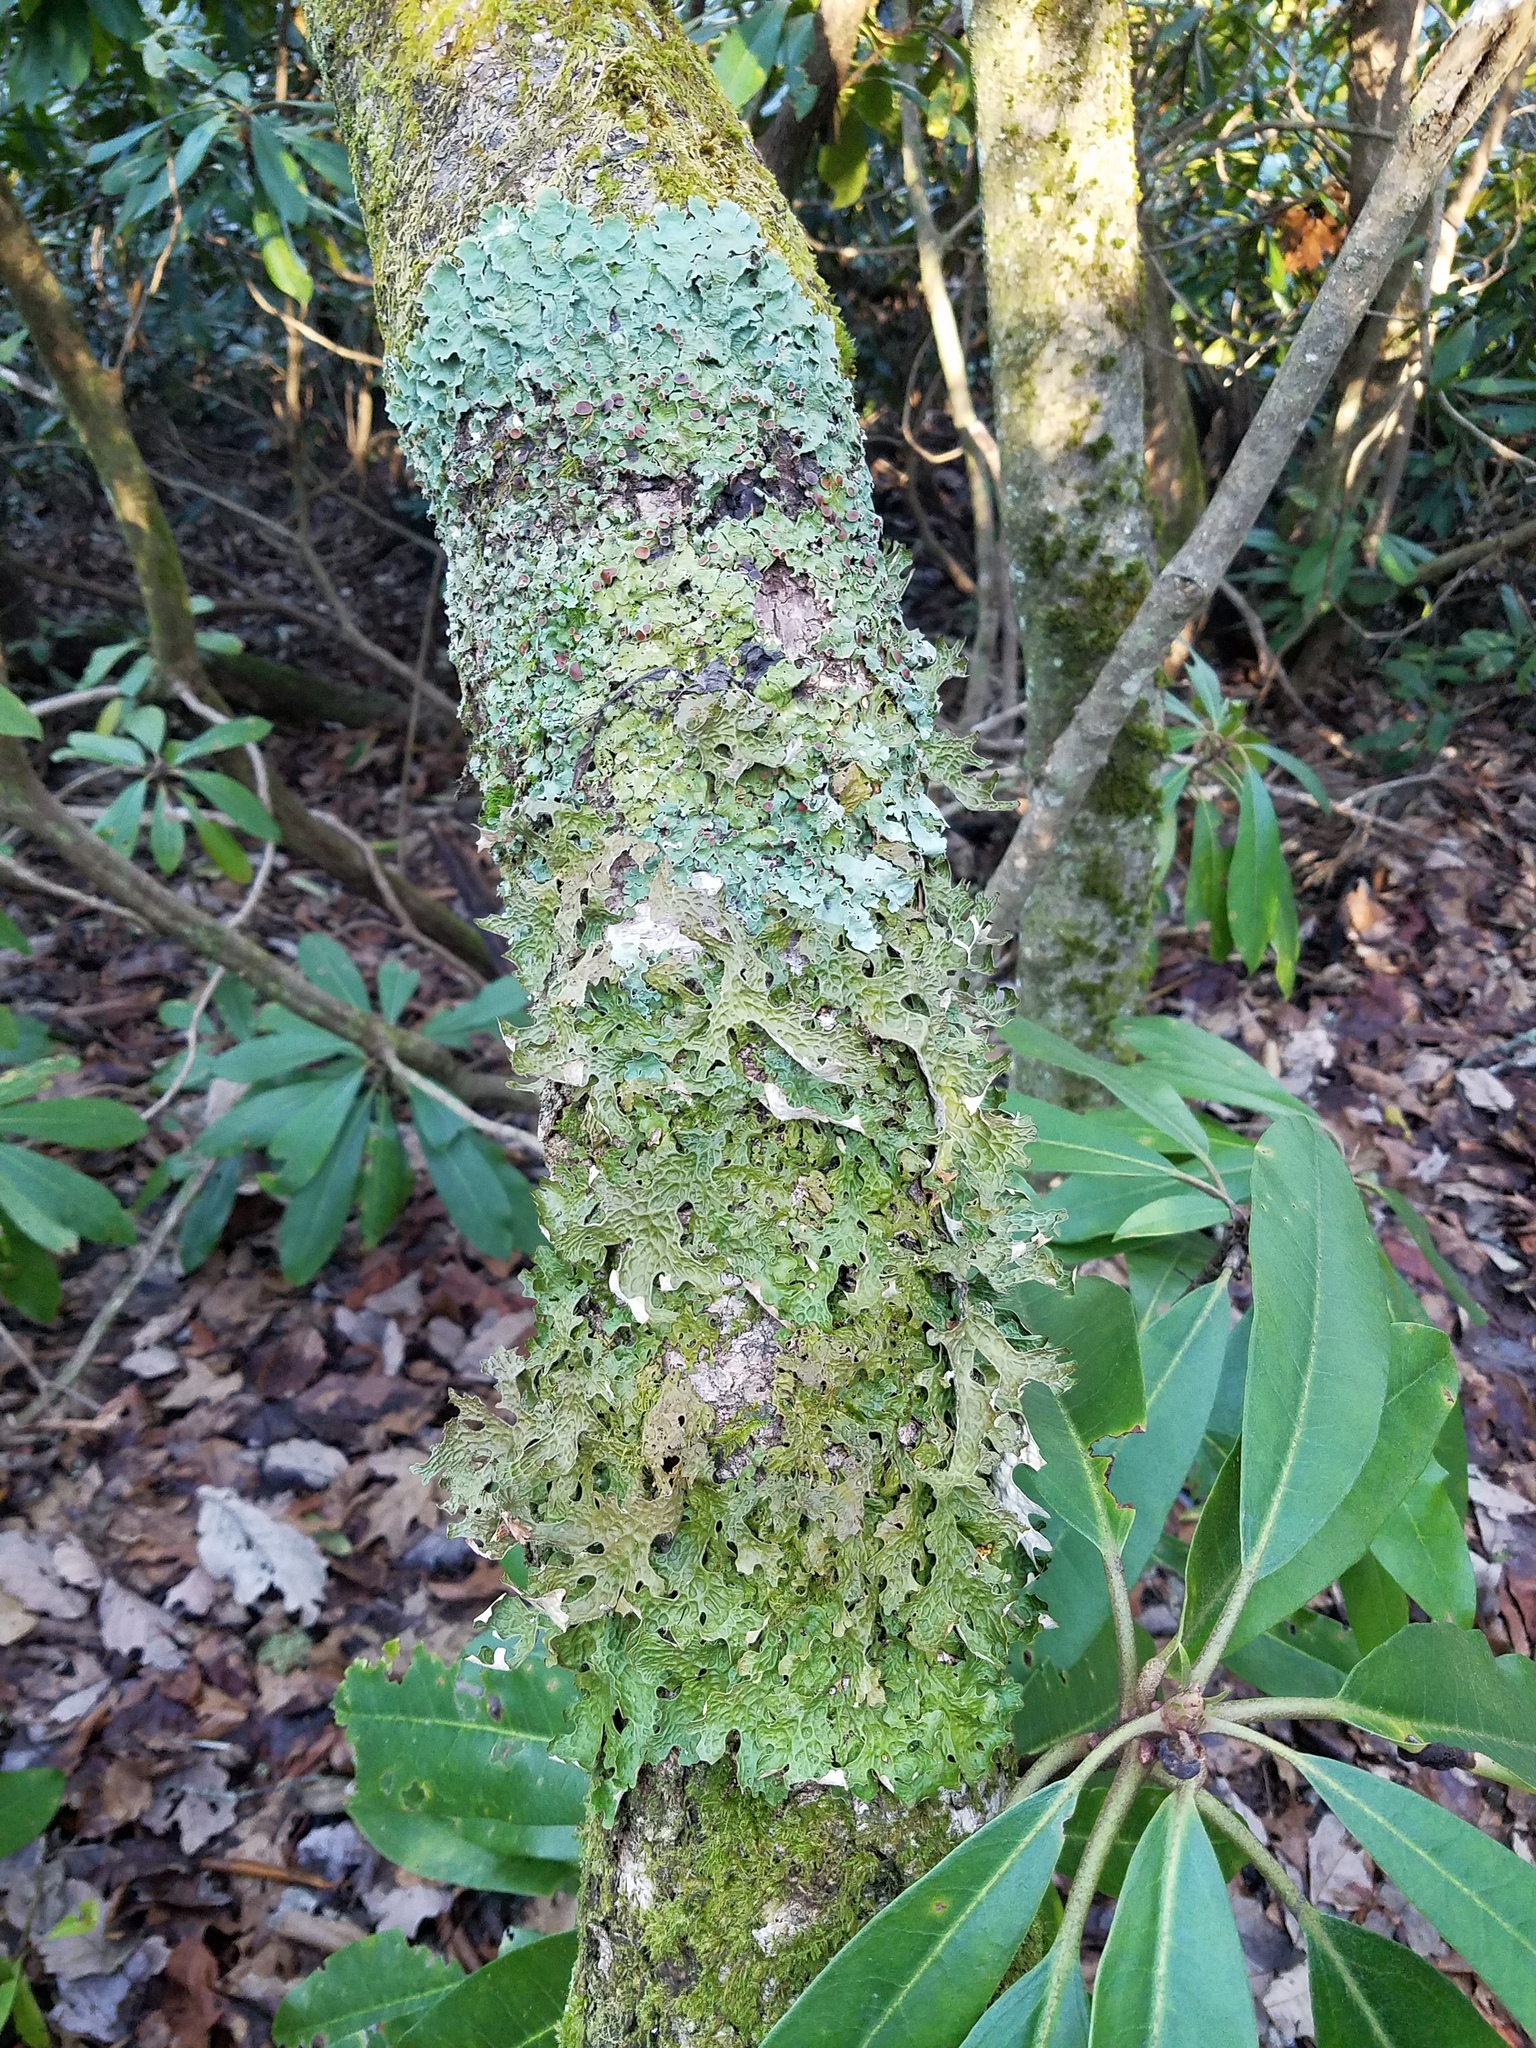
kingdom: Fungi
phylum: Ascomycota
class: Lecanoromycetes
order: Peltigerales
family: Lobariaceae
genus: Lobaria
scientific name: Lobaria pulmonaria
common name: Lungwort
